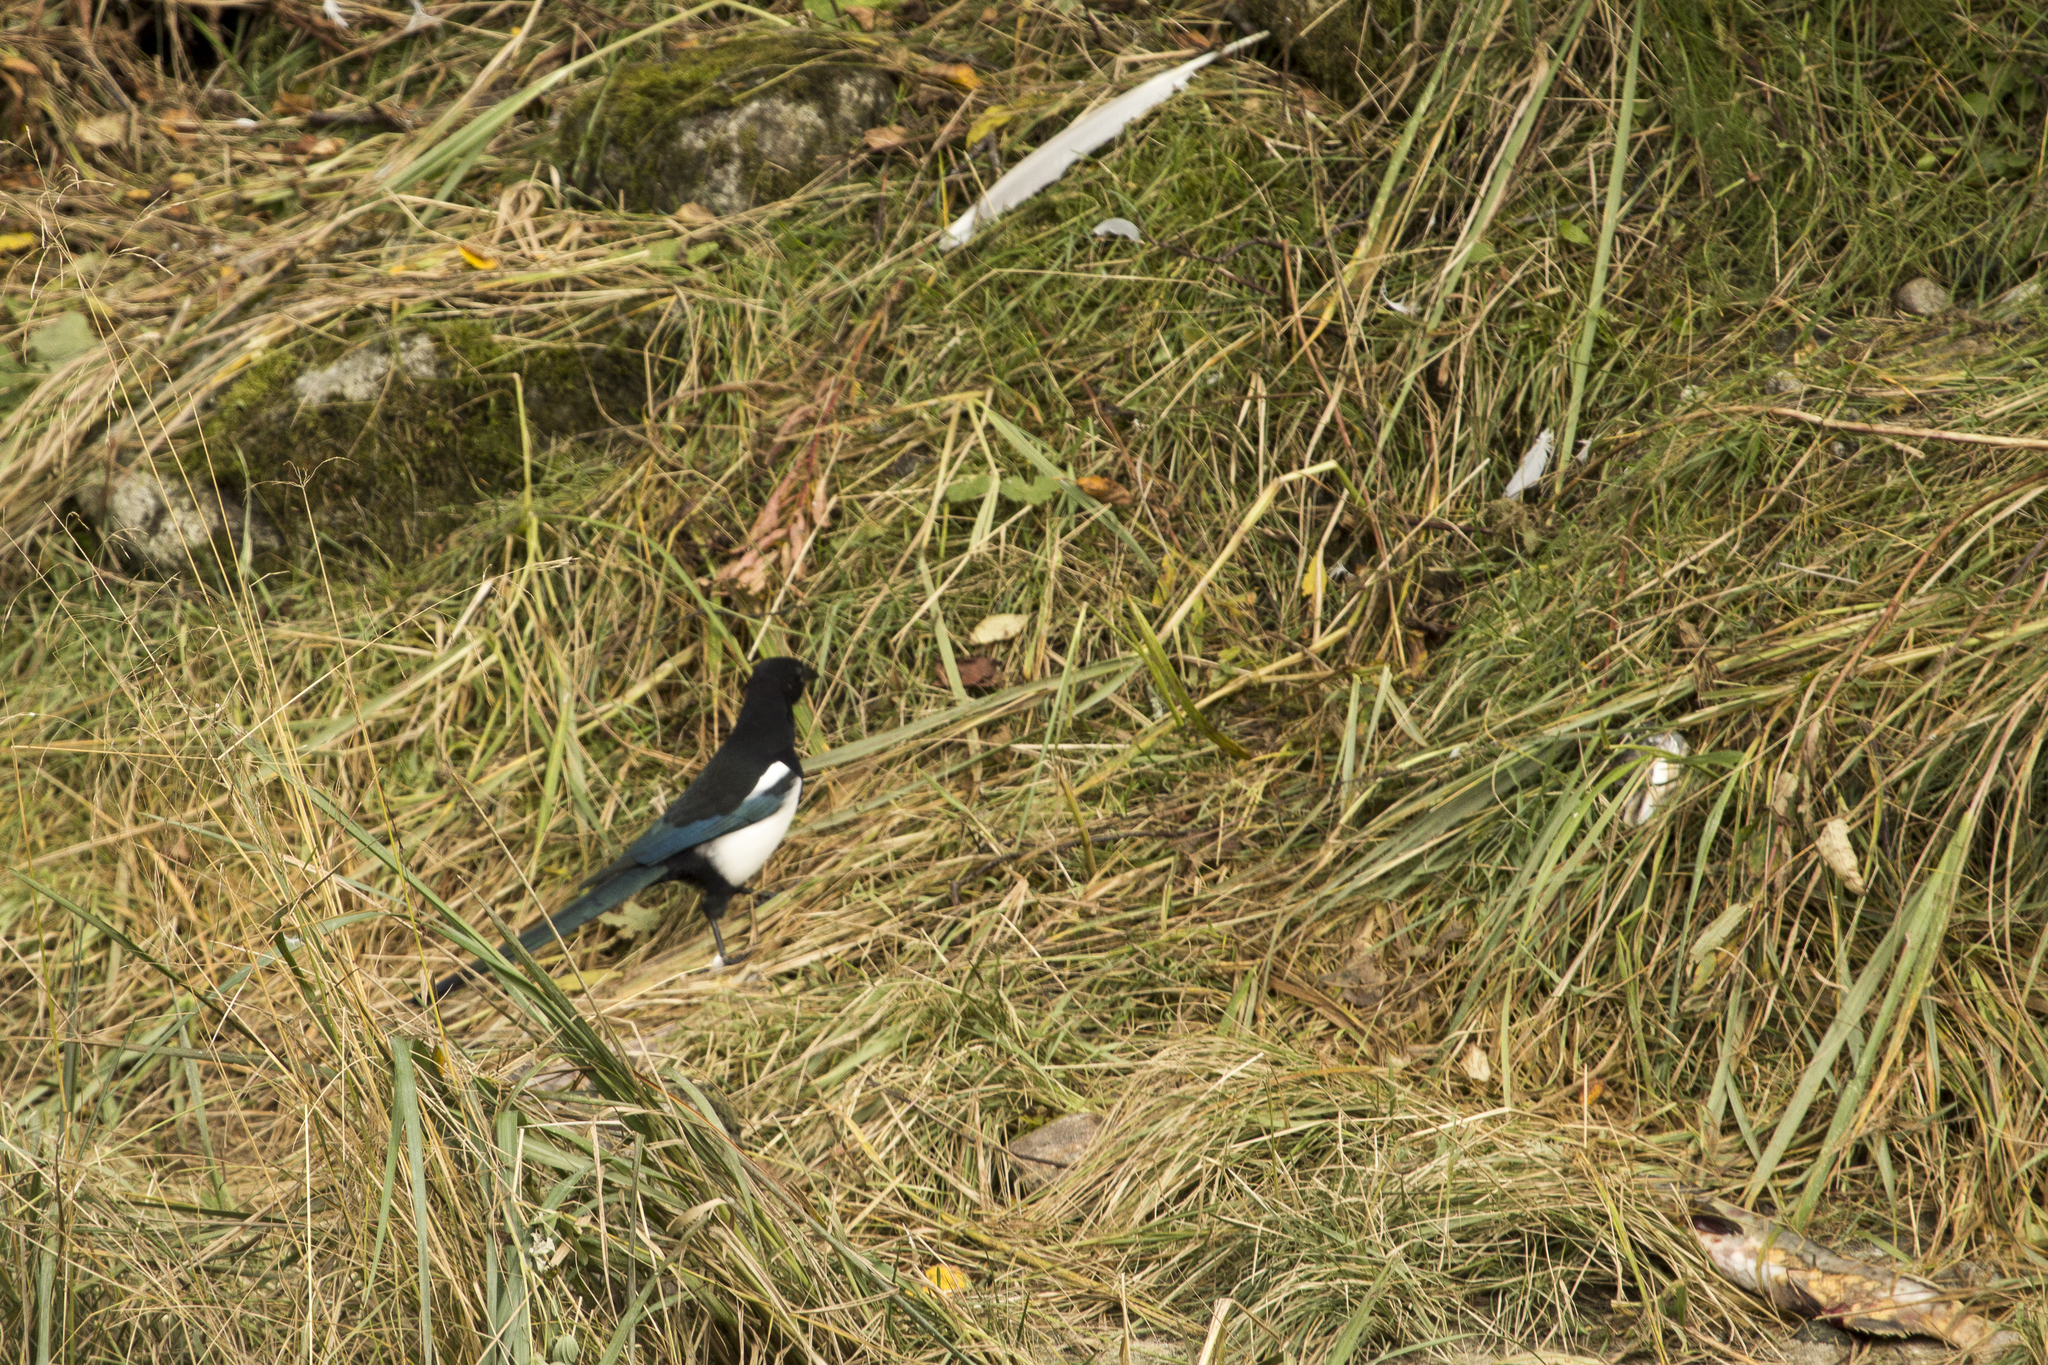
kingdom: Animalia
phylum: Chordata
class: Aves
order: Passeriformes
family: Corvidae
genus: Pica
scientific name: Pica hudsonia
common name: Black-billed magpie
